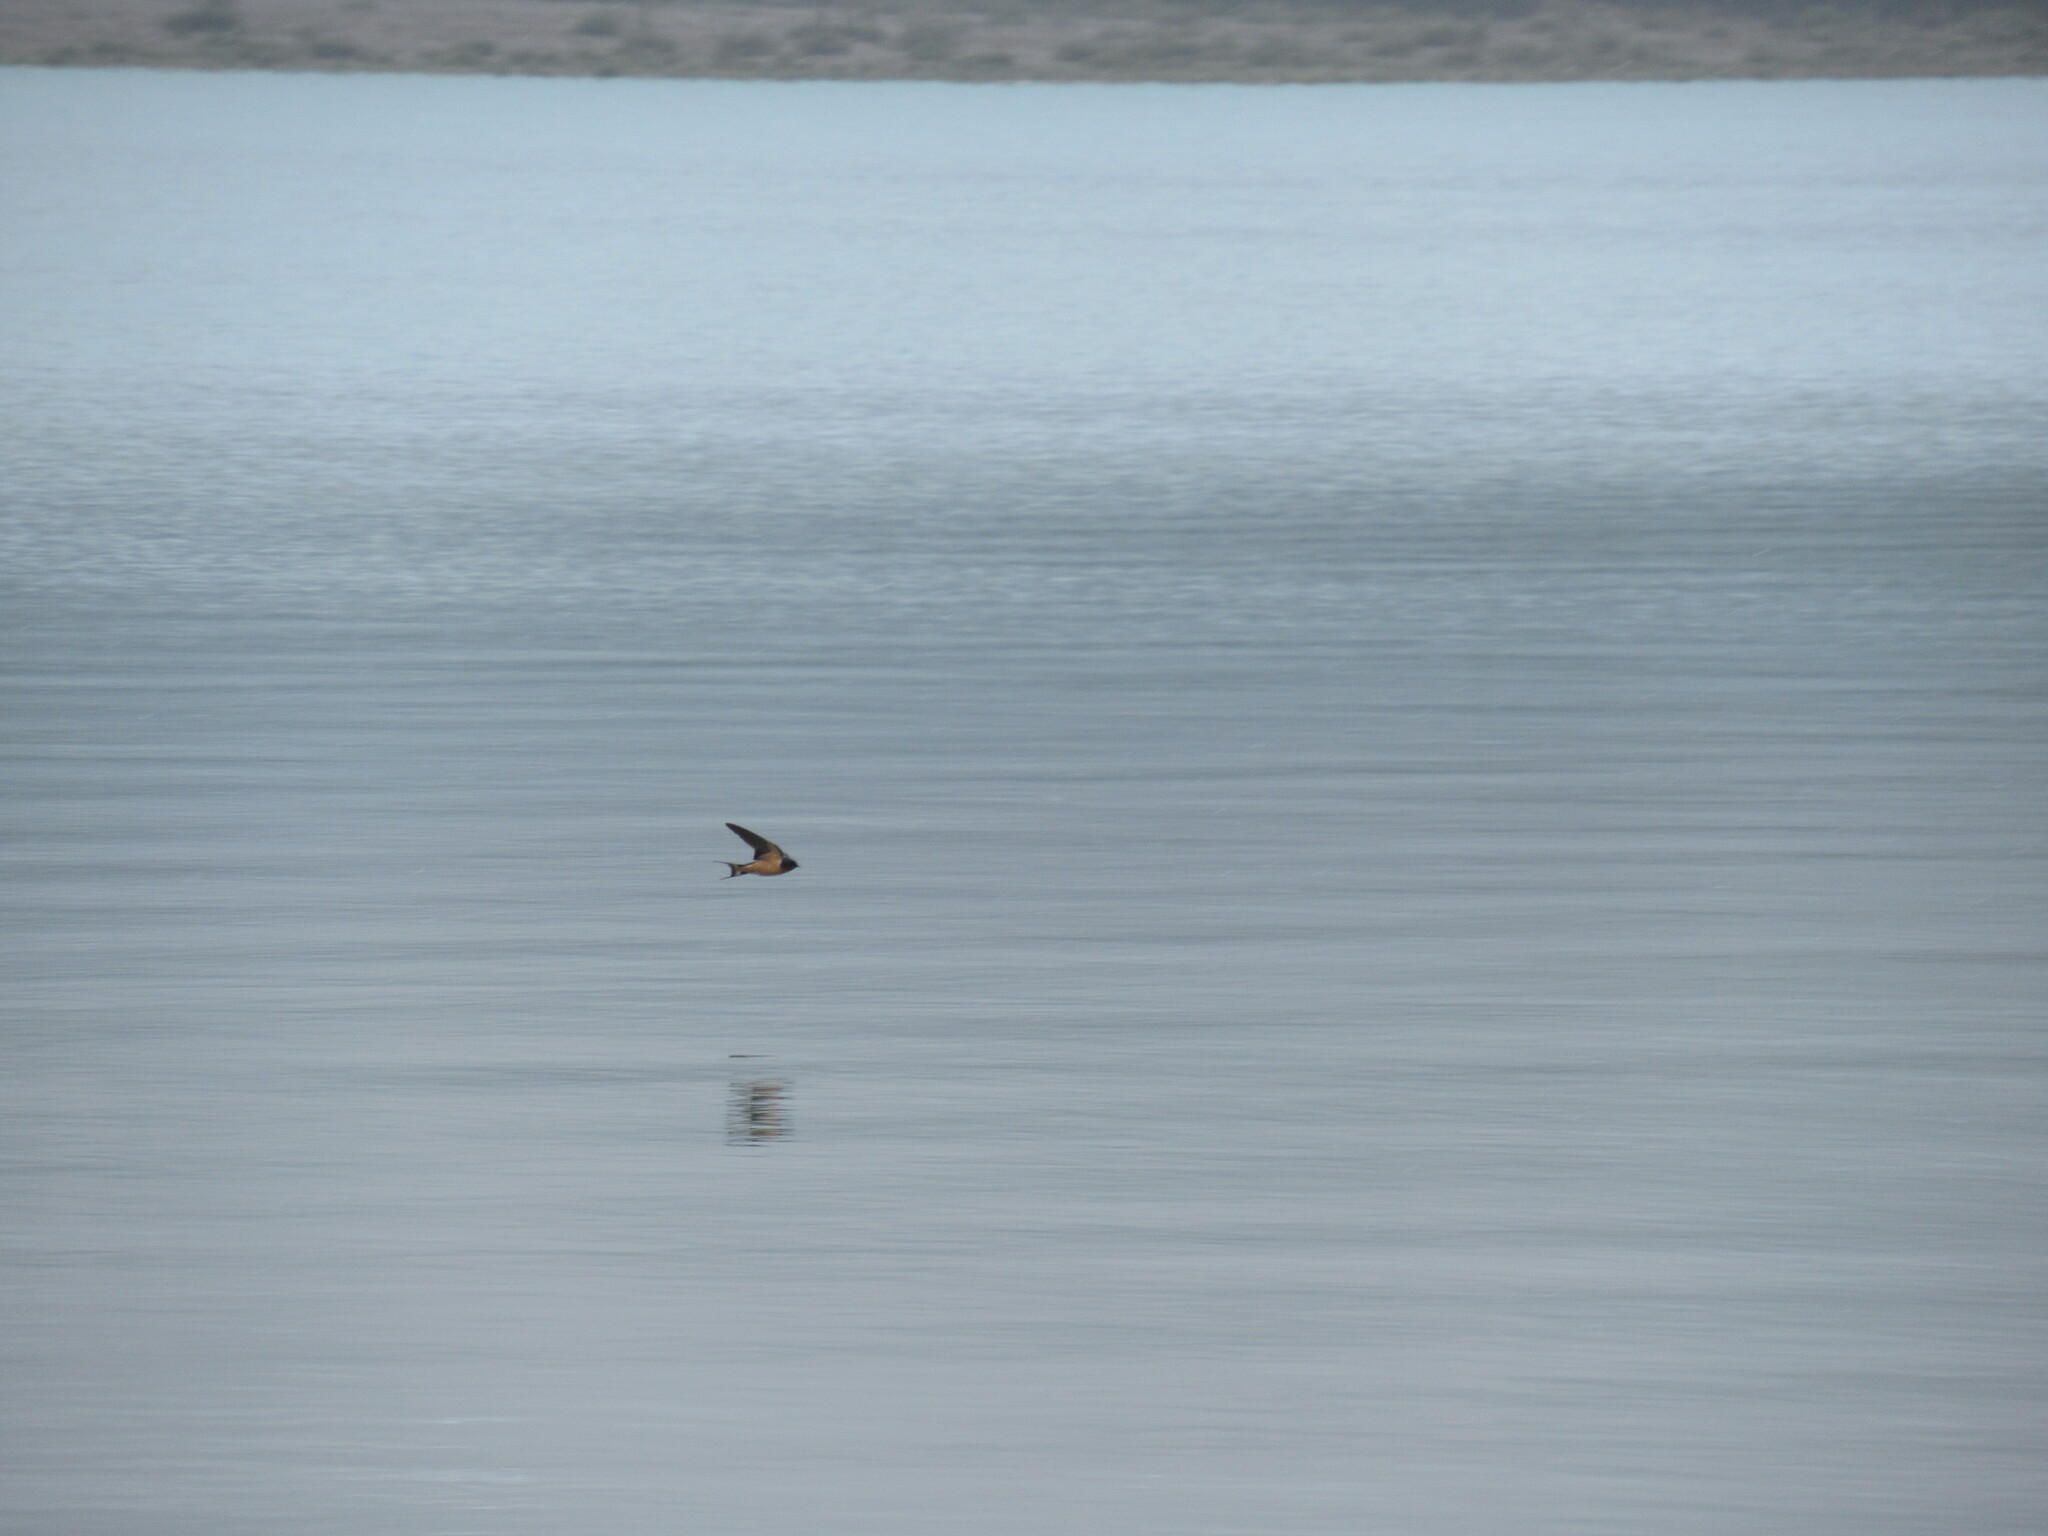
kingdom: Animalia
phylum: Chordata
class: Aves
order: Passeriformes
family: Hirundinidae
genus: Hirundo
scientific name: Hirundo rustica
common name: Barn swallow
